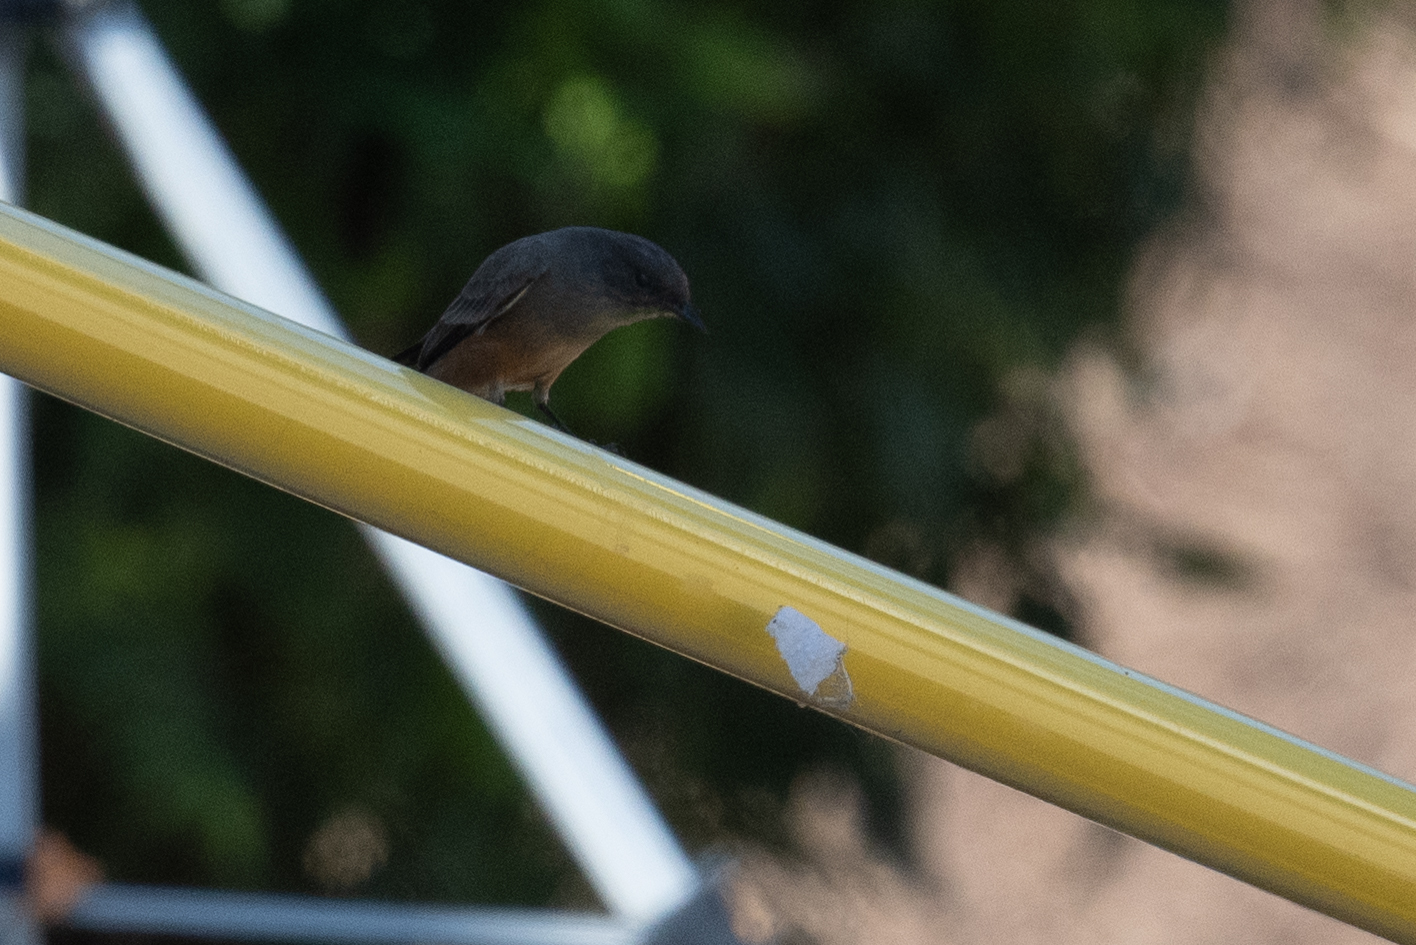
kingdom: Animalia
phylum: Chordata
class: Aves
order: Passeriformes
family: Tyrannidae
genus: Sayornis
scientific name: Sayornis saya
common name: Say's phoebe
